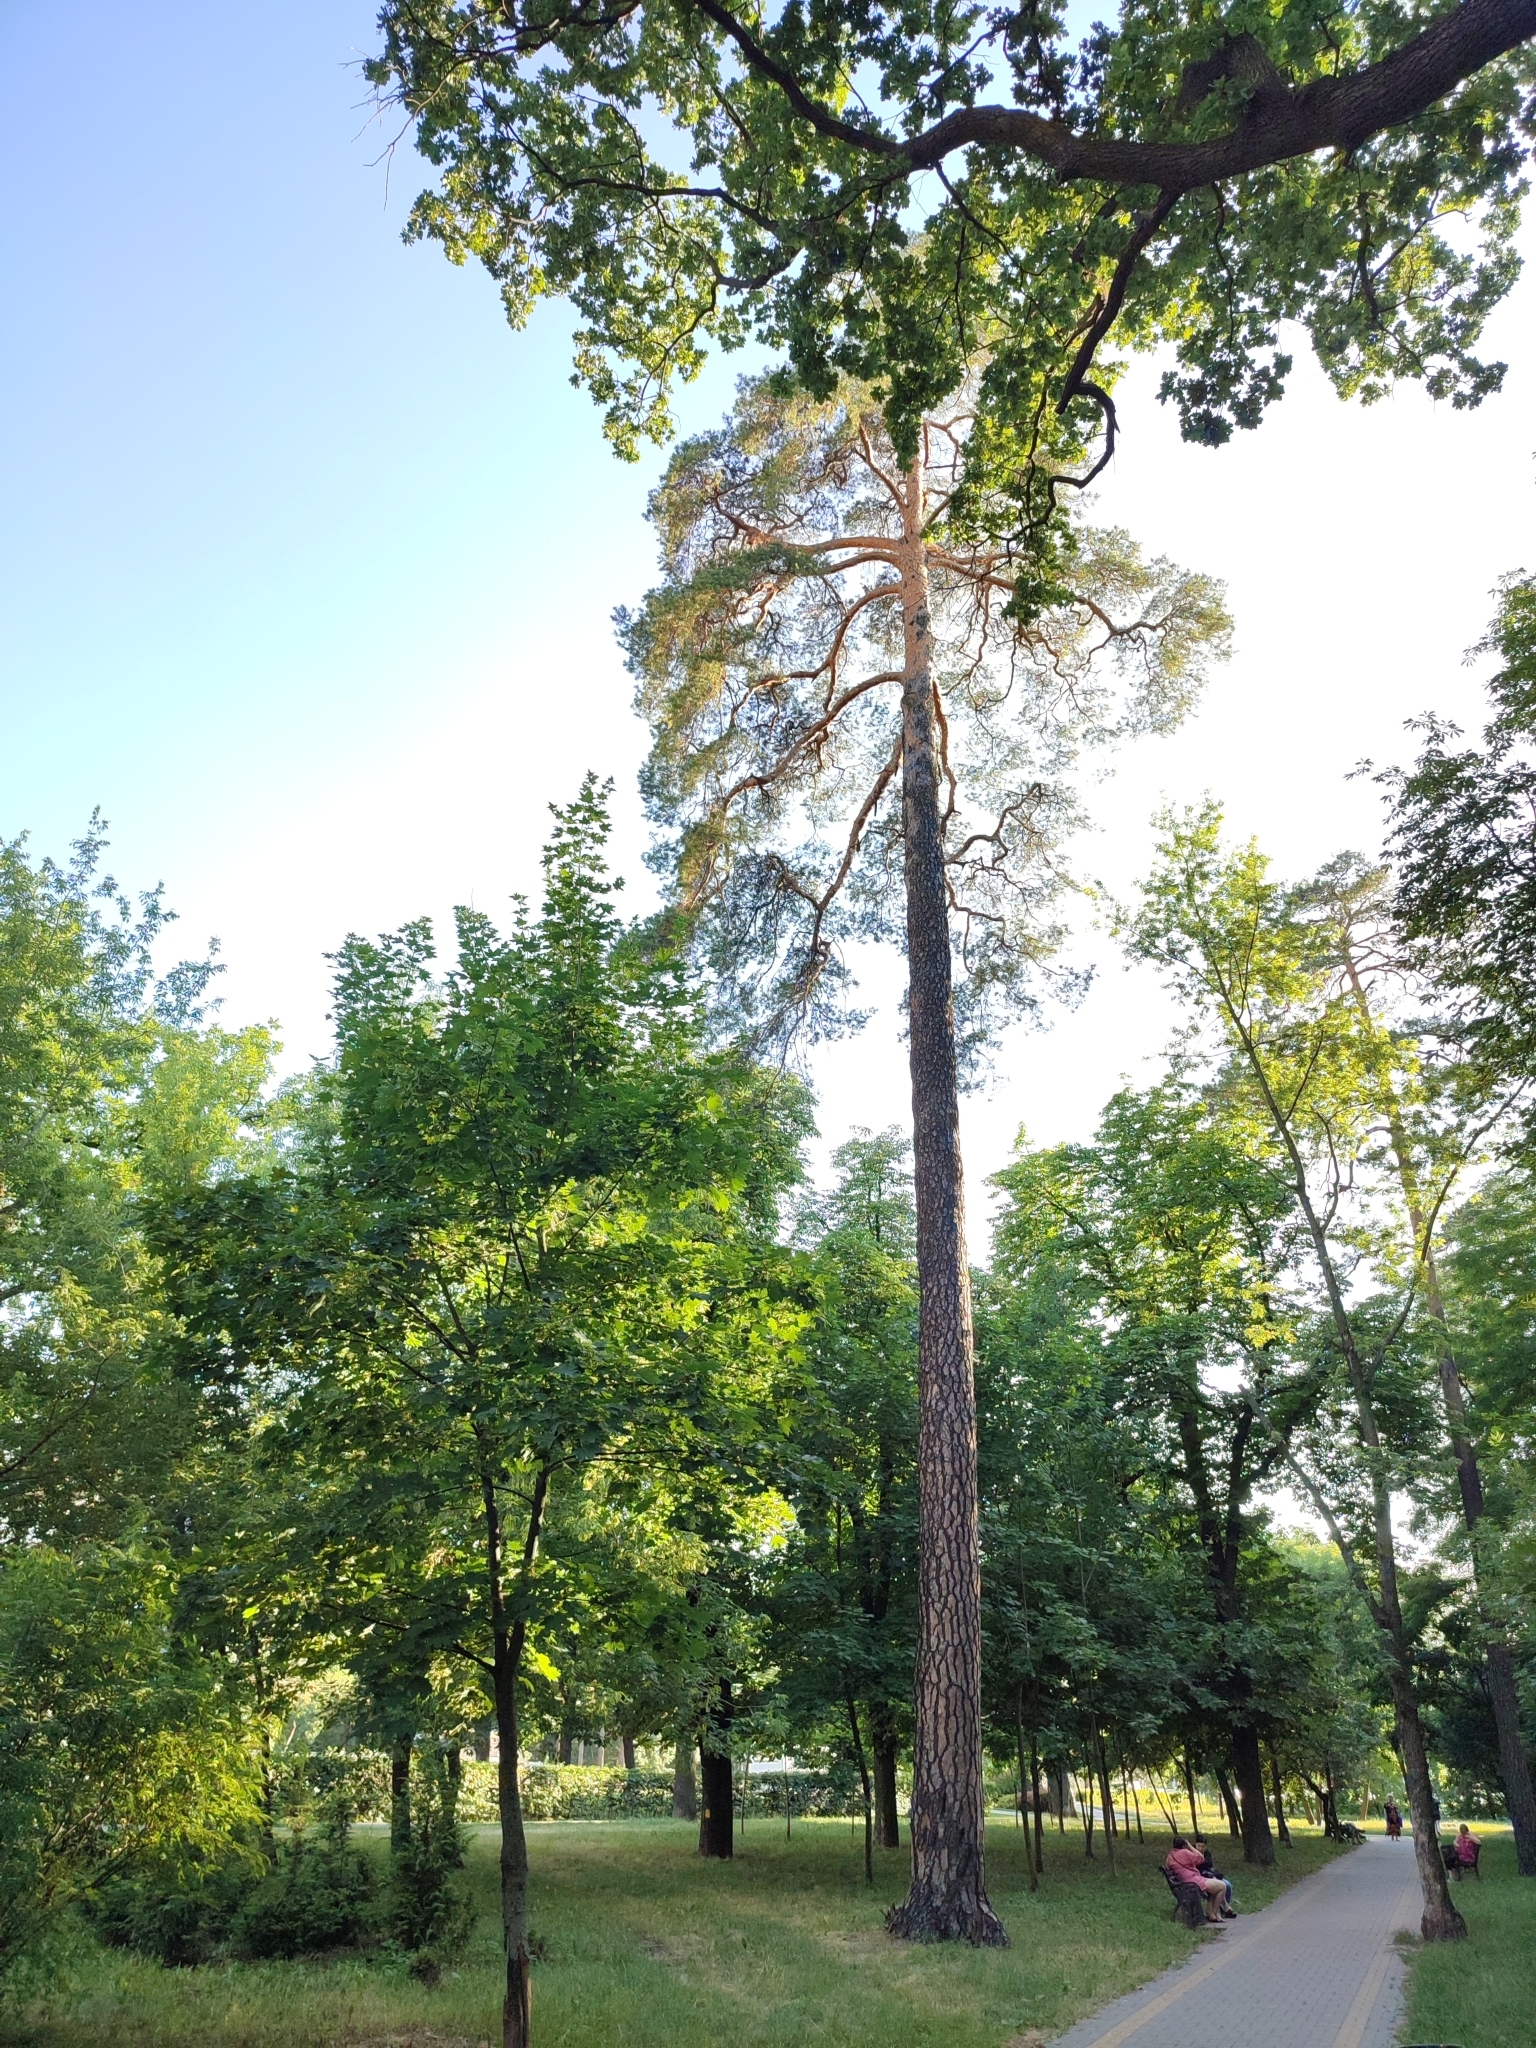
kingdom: Plantae
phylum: Tracheophyta
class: Pinopsida
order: Pinales
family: Pinaceae
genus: Pinus
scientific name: Pinus sylvestris
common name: Scots pine
